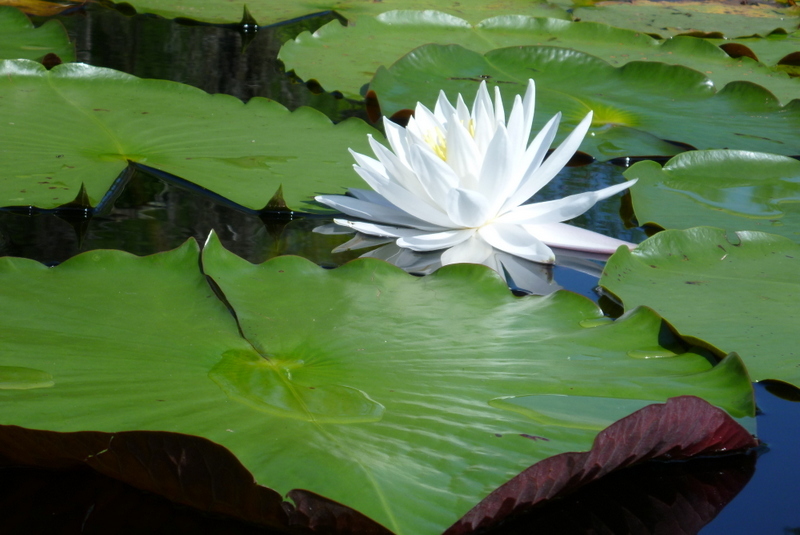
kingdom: Plantae
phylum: Tracheophyta
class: Magnoliopsida
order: Nymphaeales
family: Nymphaeaceae
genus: Nymphaea
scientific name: Nymphaea odorata
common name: Fragrant water-lily
